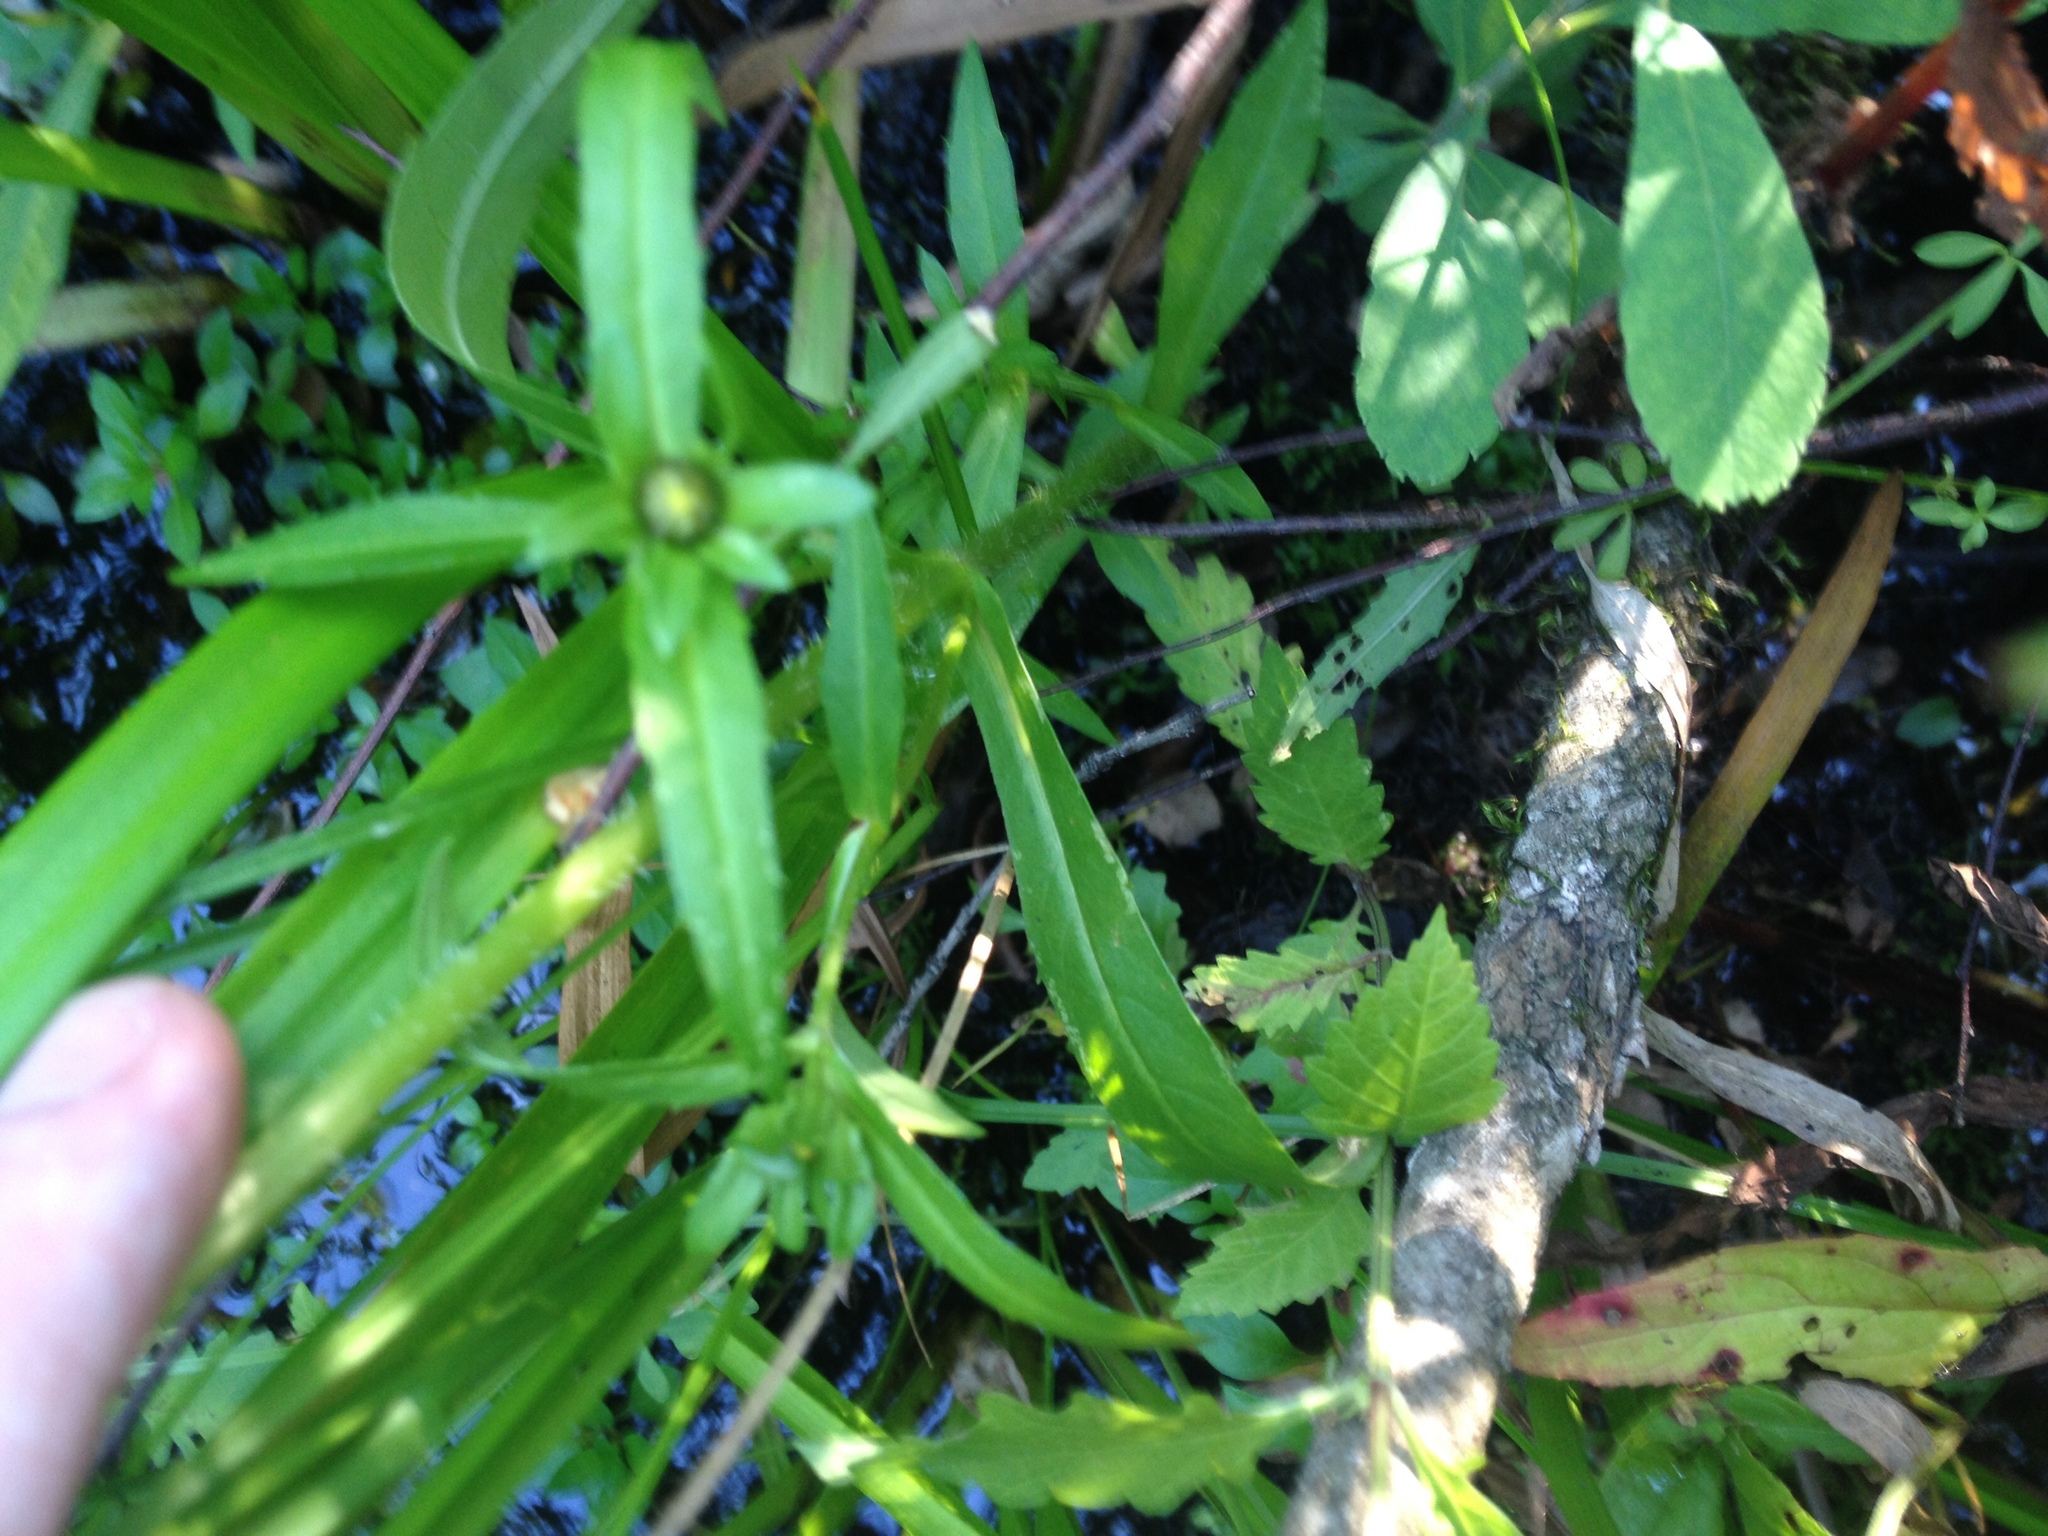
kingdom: Plantae
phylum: Tracheophyta
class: Magnoliopsida
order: Asterales
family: Asteraceae
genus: Bidens
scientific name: Bidens cernua
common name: Nodding bur-marigold
